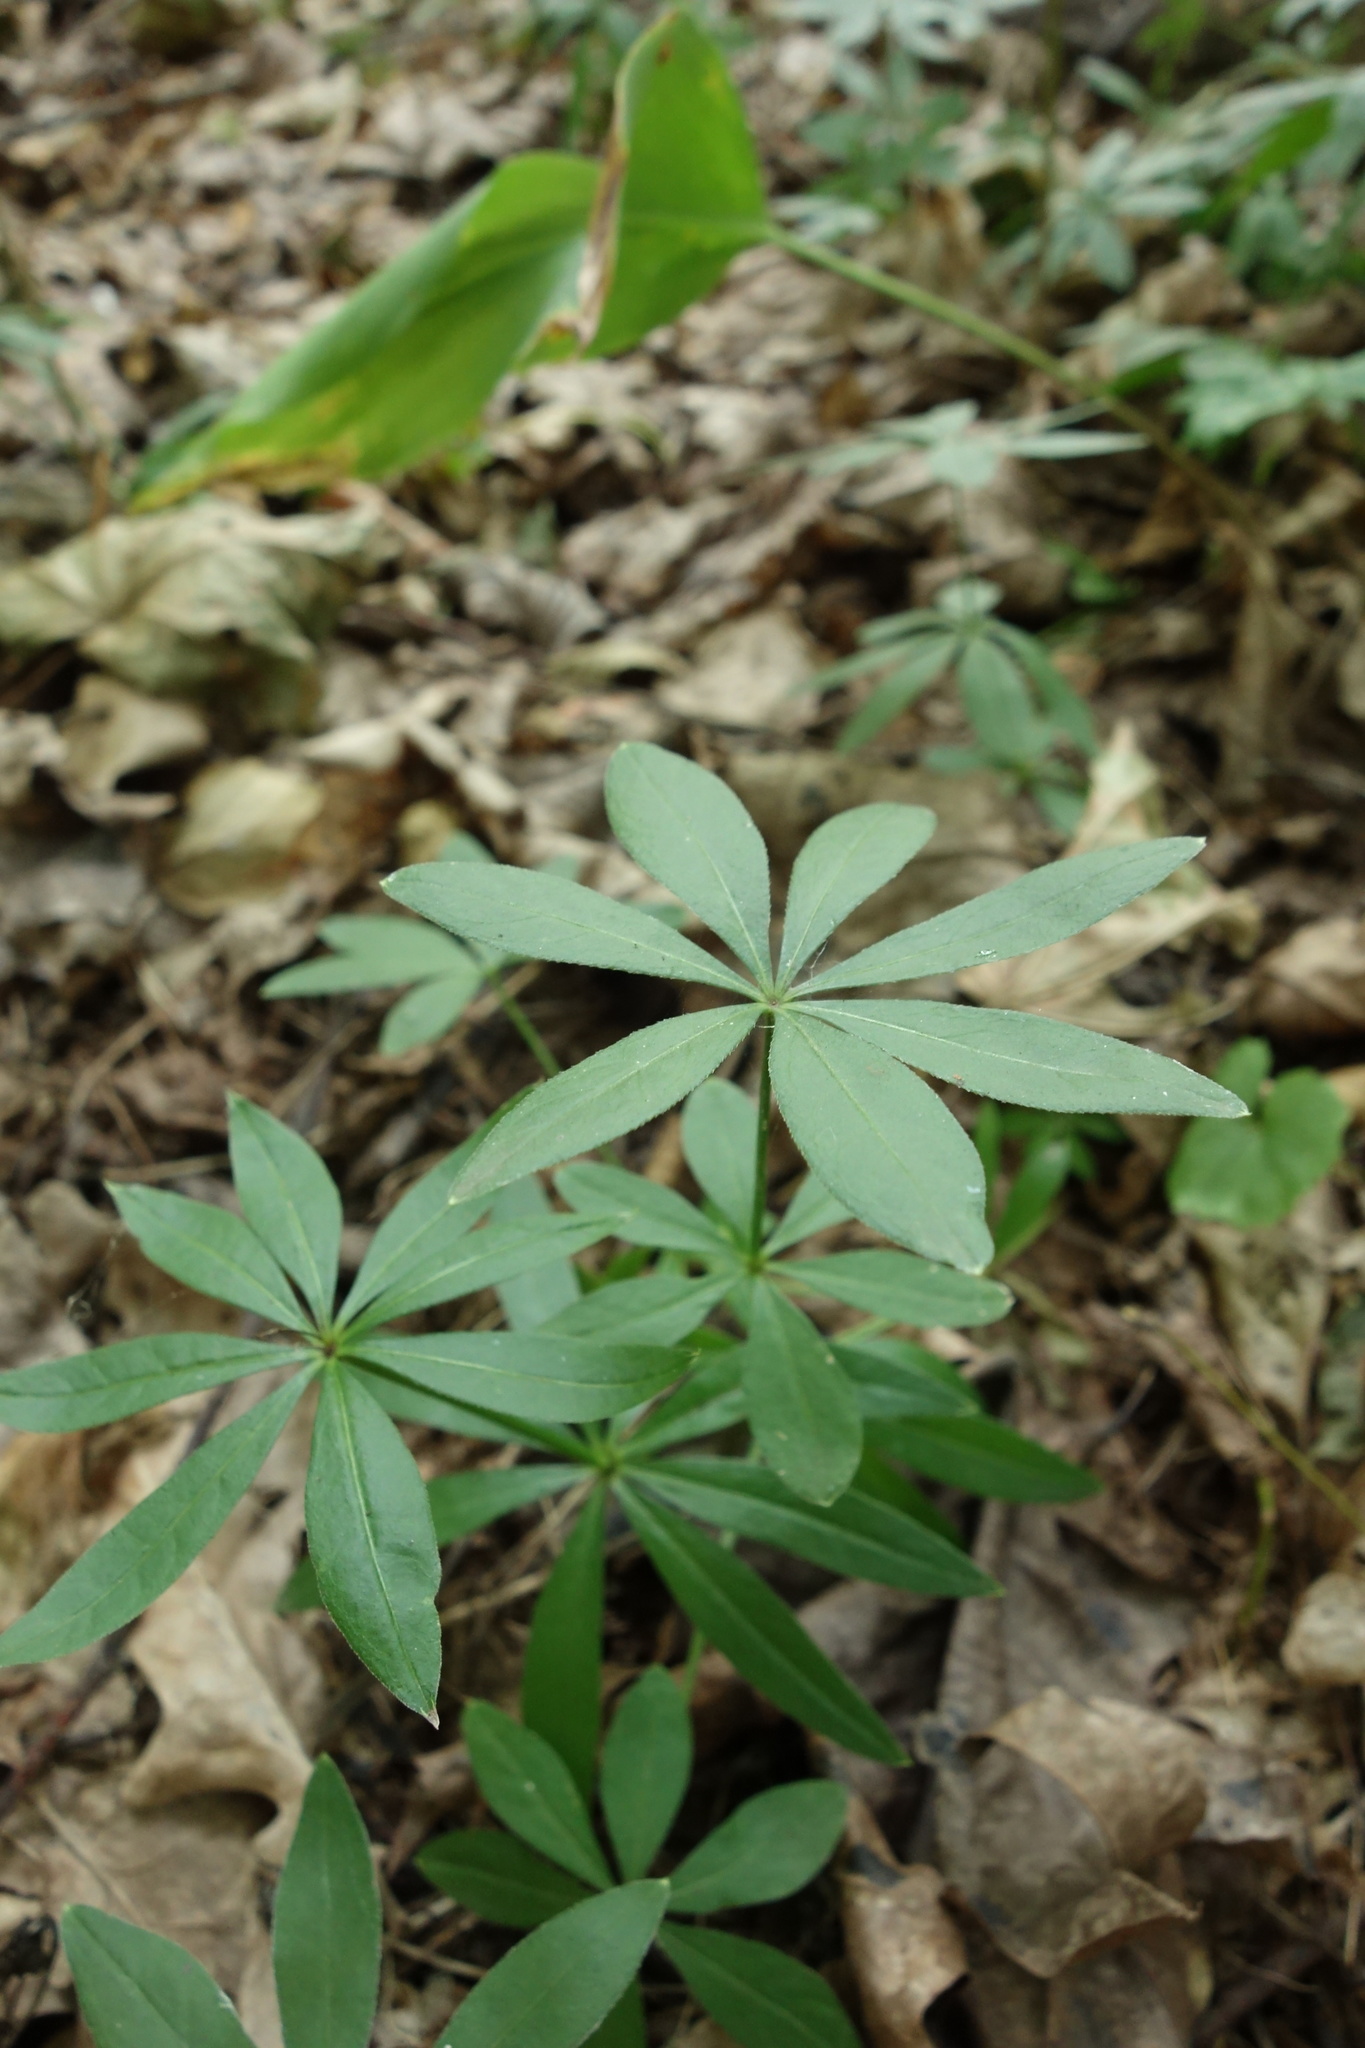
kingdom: Plantae
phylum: Tracheophyta
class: Magnoliopsida
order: Gentianales
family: Rubiaceae
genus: Galium
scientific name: Galium odoratum
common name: Sweet woodruff
